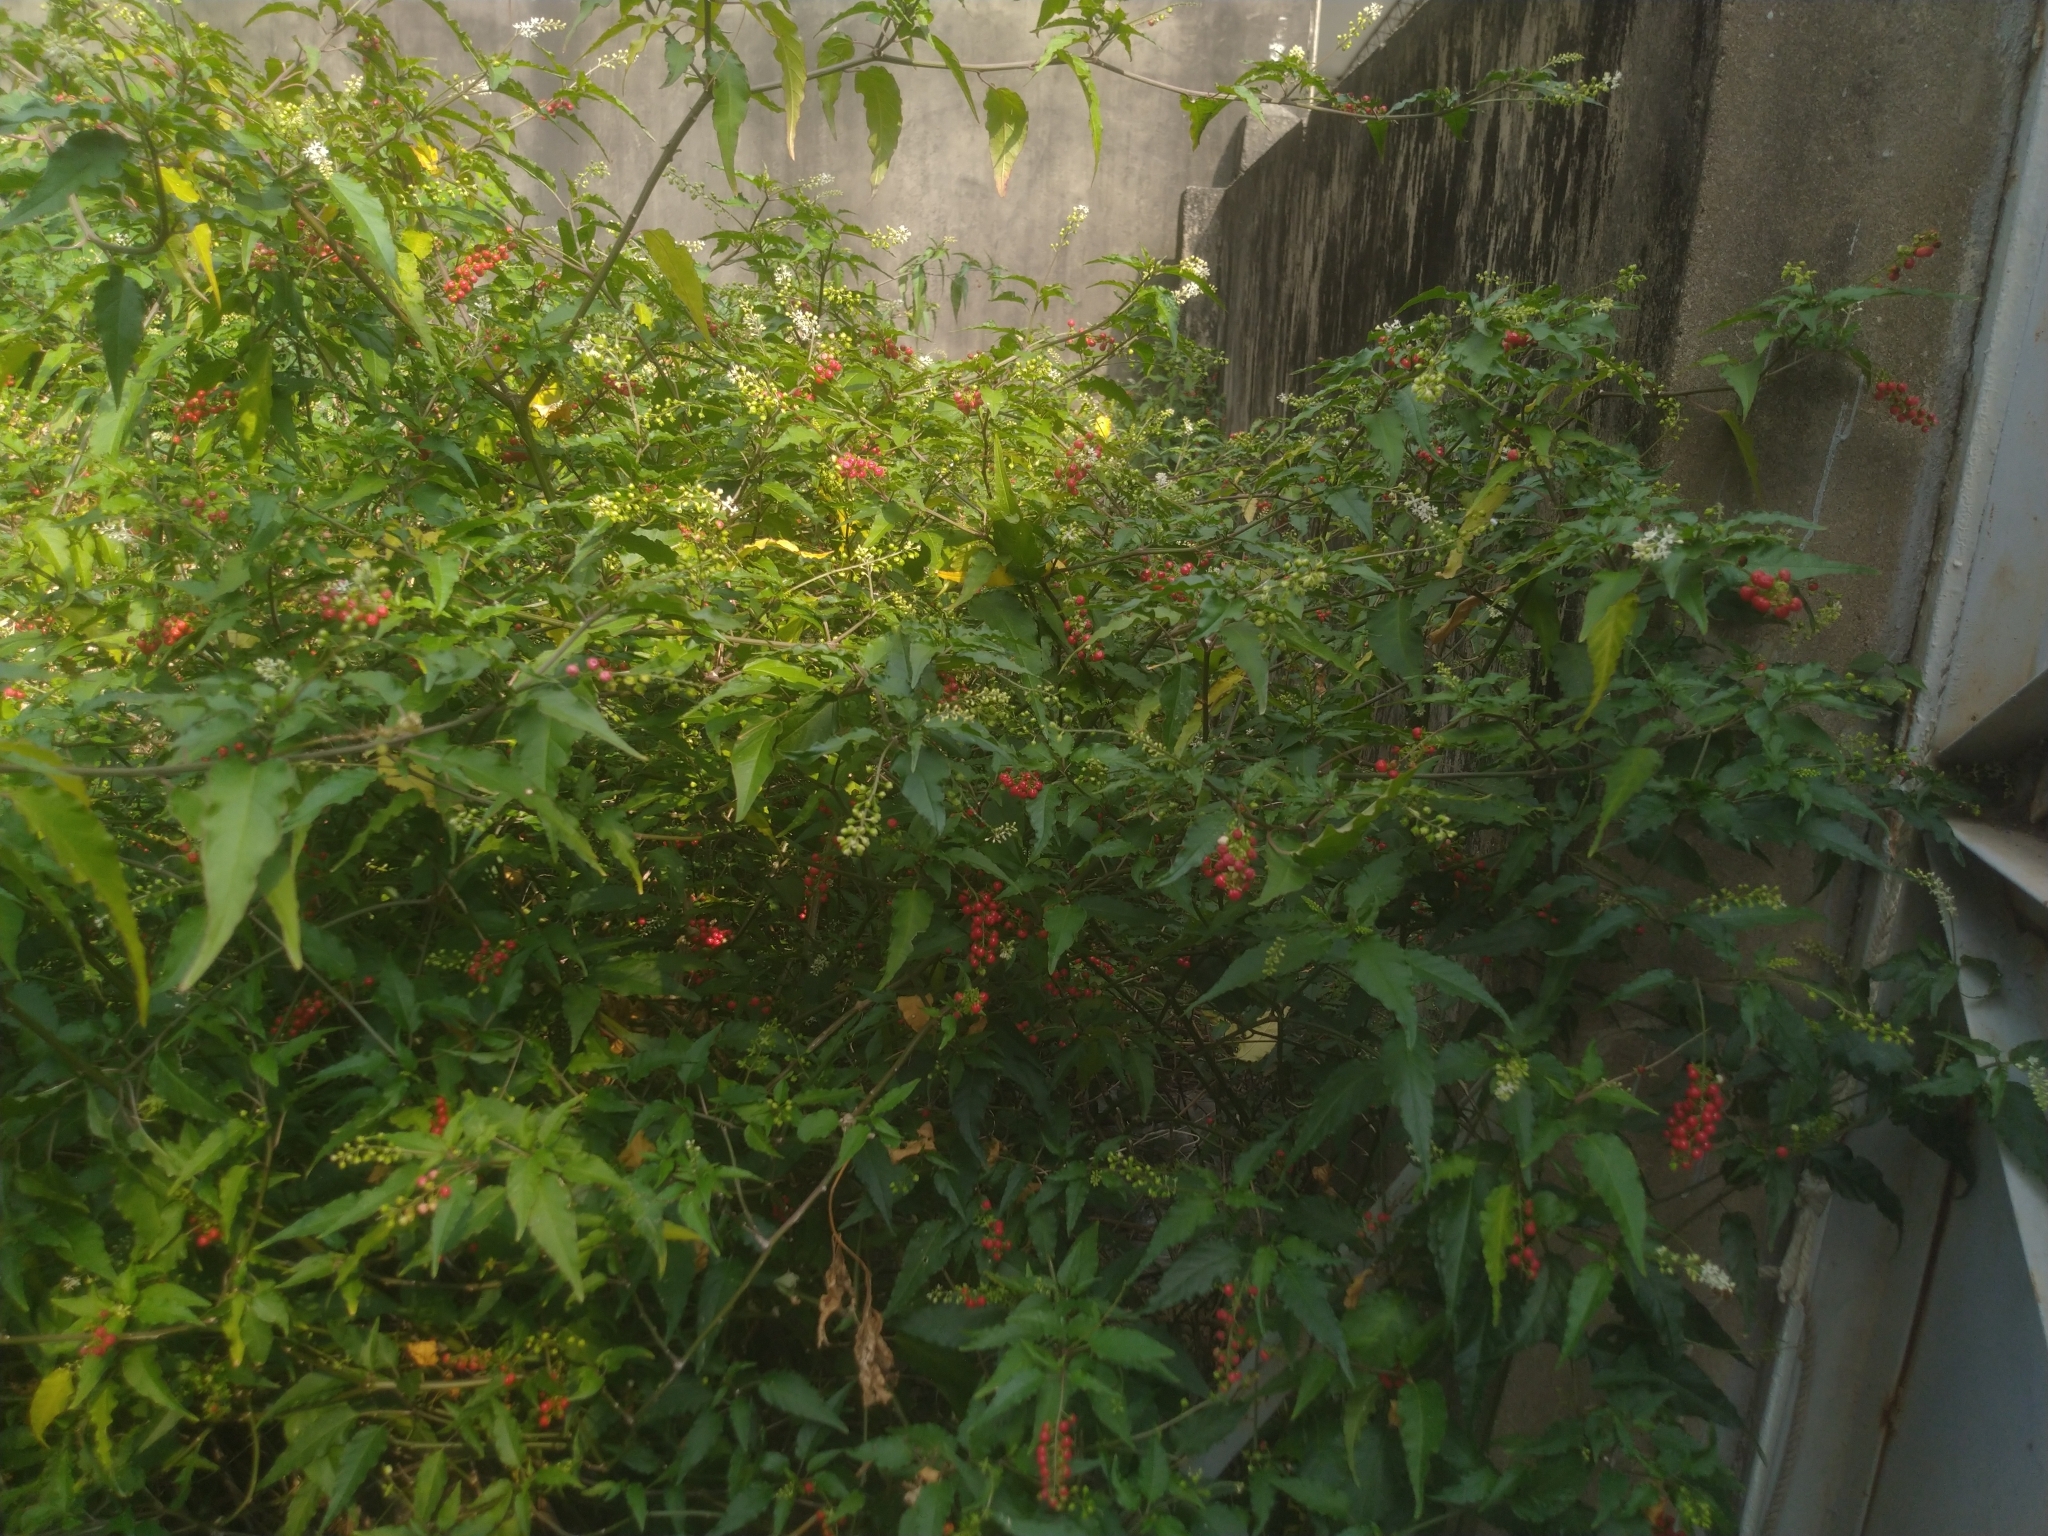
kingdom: Plantae
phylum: Tracheophyta
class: Magnoliopsida
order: Caryophyllales
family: Phytolaccaceae
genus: Rivina
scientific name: Rivina humilis
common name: Rougeplant
